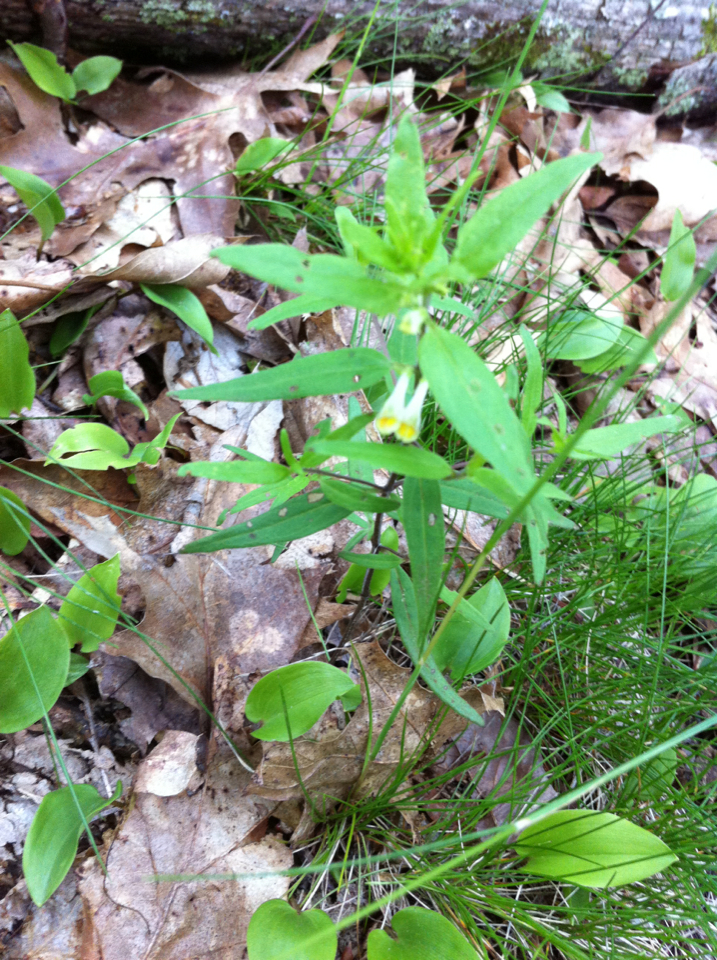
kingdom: Plantae
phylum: Tracheophyta
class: Magnoliopsida
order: Lamiales
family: Orobanchaceae
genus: Melampyrum
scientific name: Melampyrum lineare
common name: American cow-wheat
